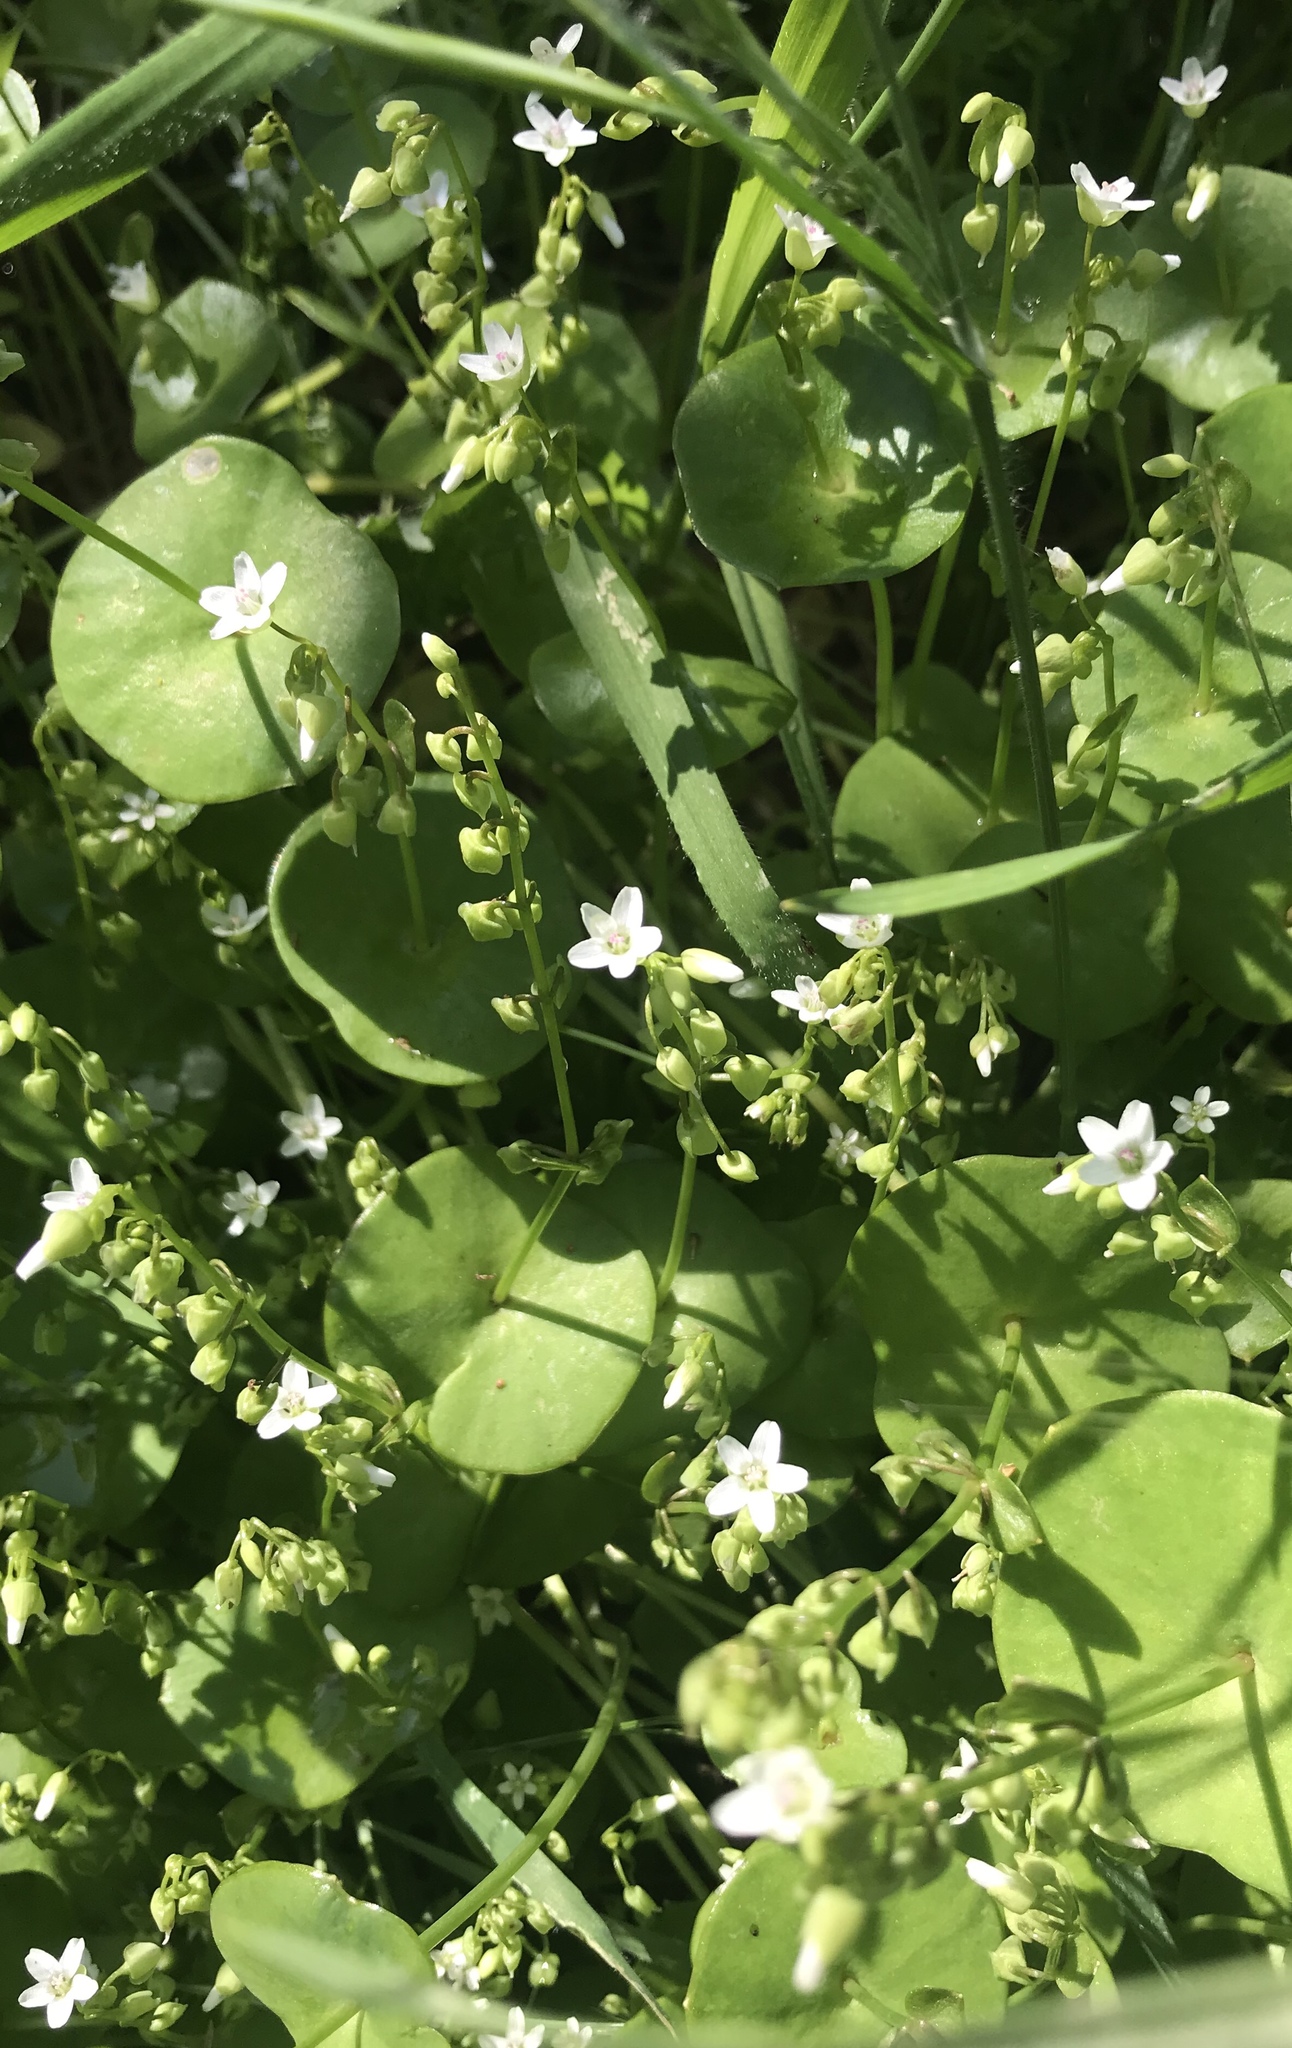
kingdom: Plantae
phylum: Tracheophyta
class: Magnoliopsida
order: Caryophyllales
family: Montiaceae
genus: Claytonia
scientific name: Claytonia perfoliata
